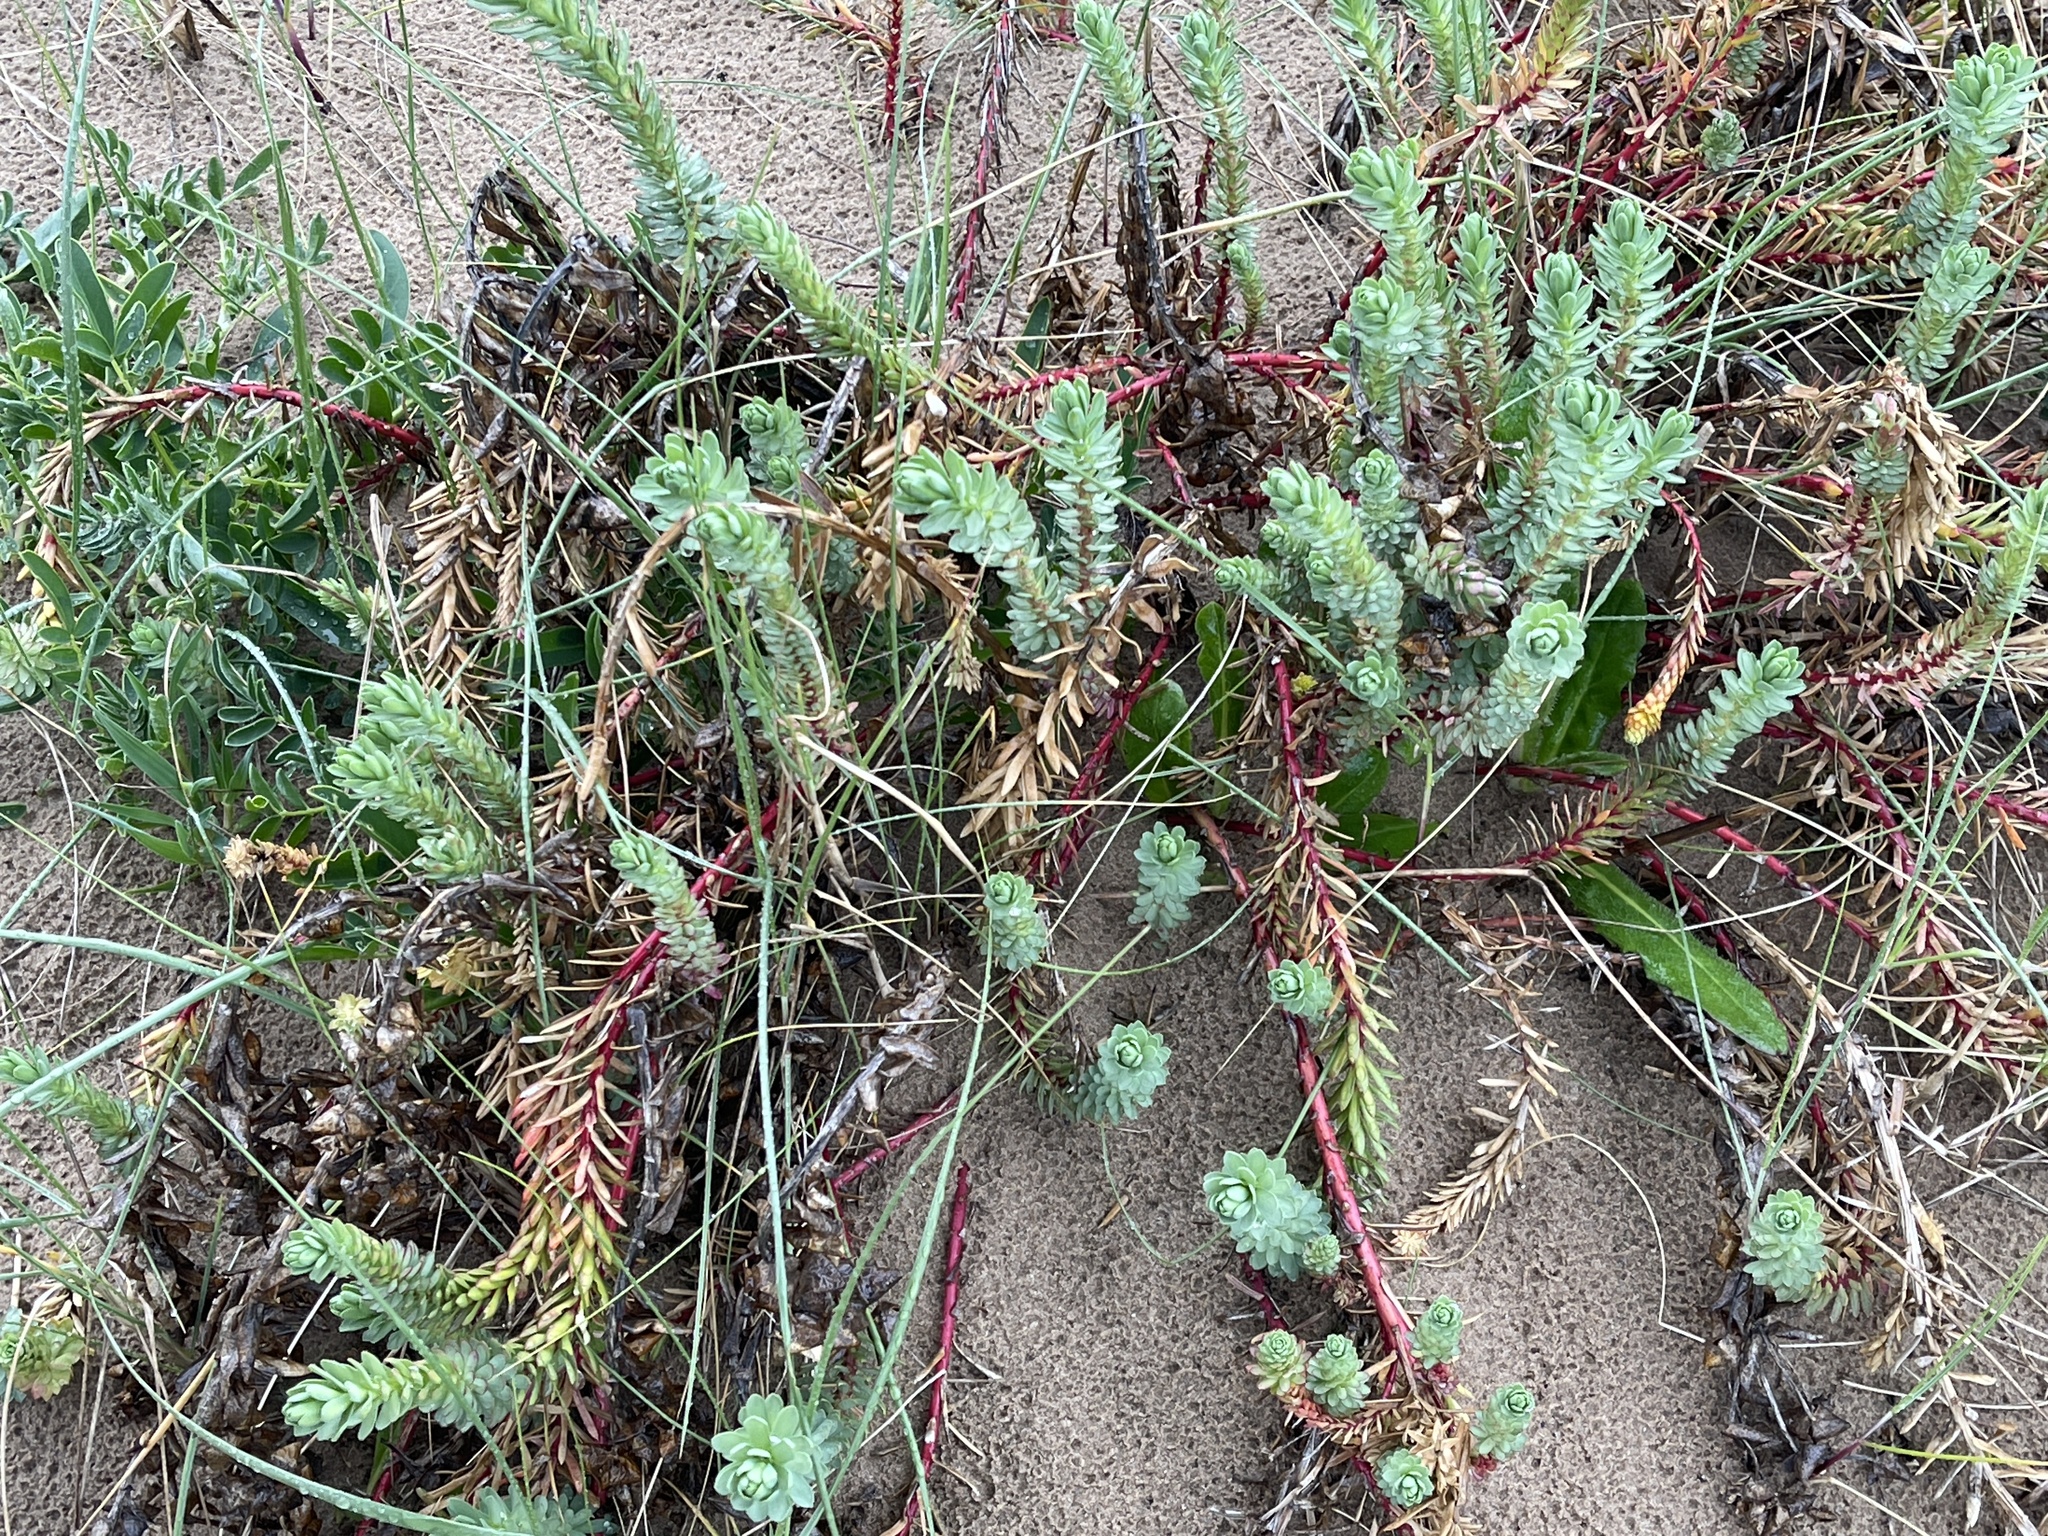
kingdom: Plantae
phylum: Tracheophyta
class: Magnoliopsida
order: Malpighiales
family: Euphorbiaceae
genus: Euphorbia
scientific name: Euphorbia paralias
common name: Sea spurge
